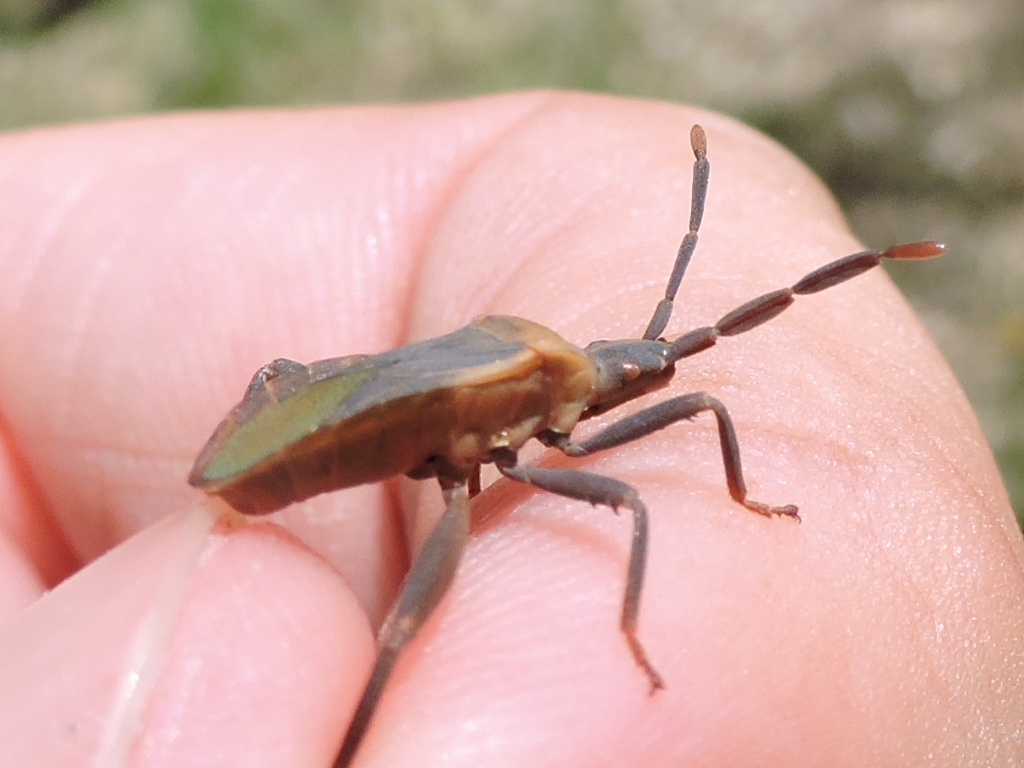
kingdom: Animalia
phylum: Arthropoda
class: Insecta
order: Hemiptera
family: Coreidae
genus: Chelinidea
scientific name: Chelinidea vittiger
